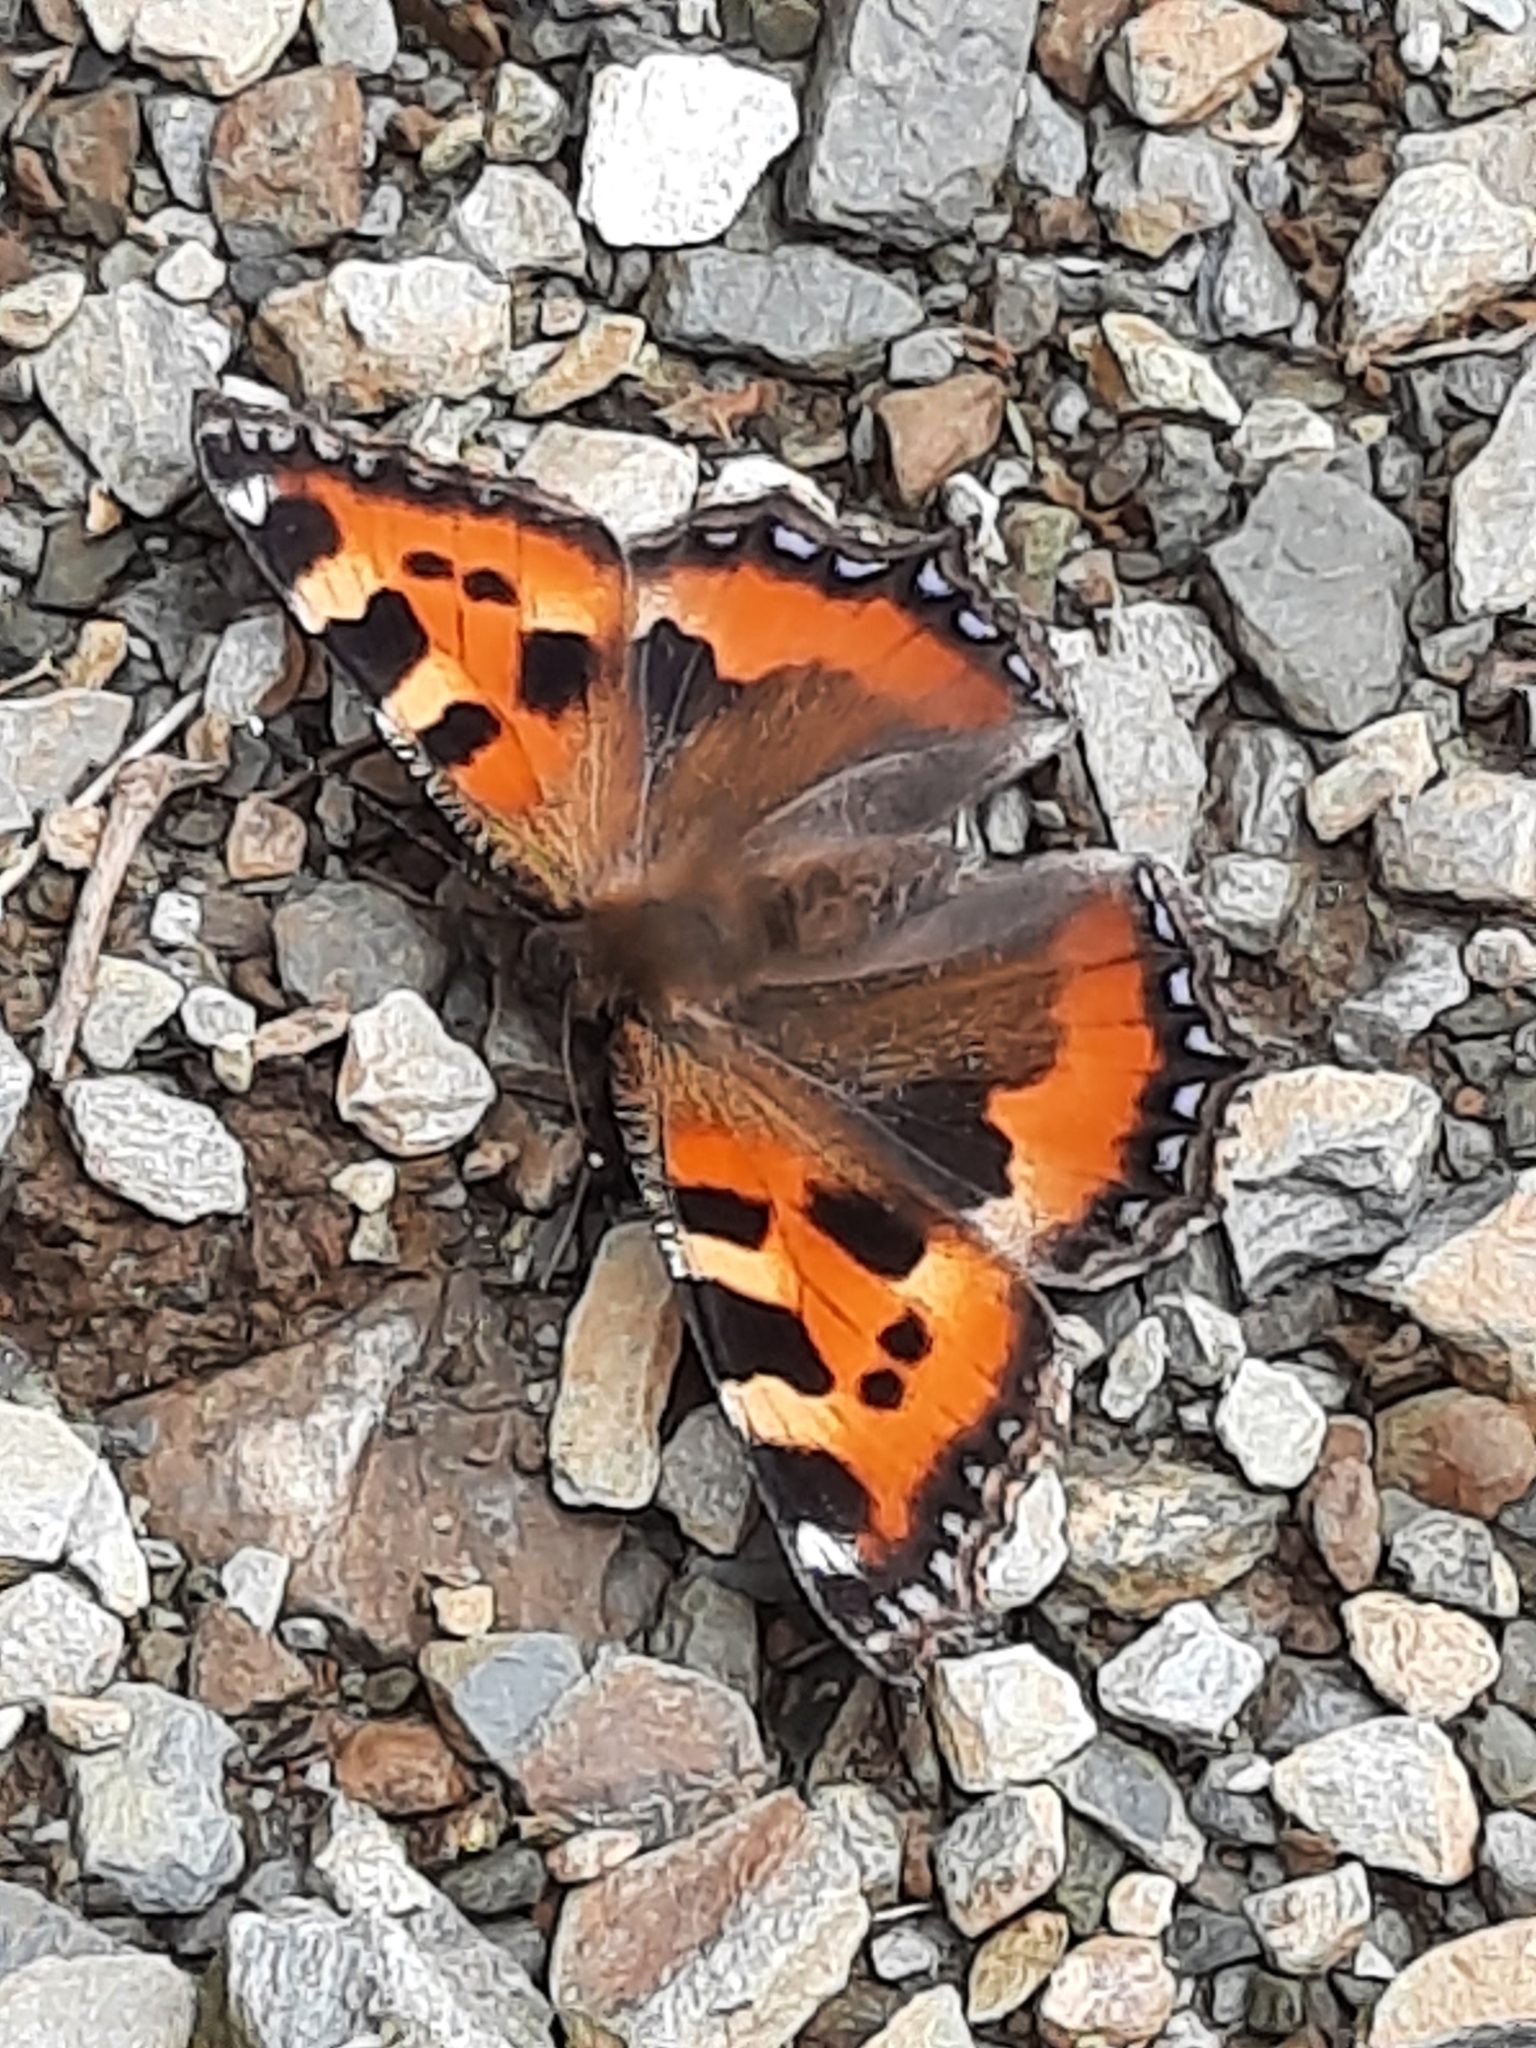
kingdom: Animalia
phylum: Arthropoda
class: Insecta
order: Lepidoptera
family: Nymphalidae
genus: Aglais
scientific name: Aglais urticae
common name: Small tortoiseshell
